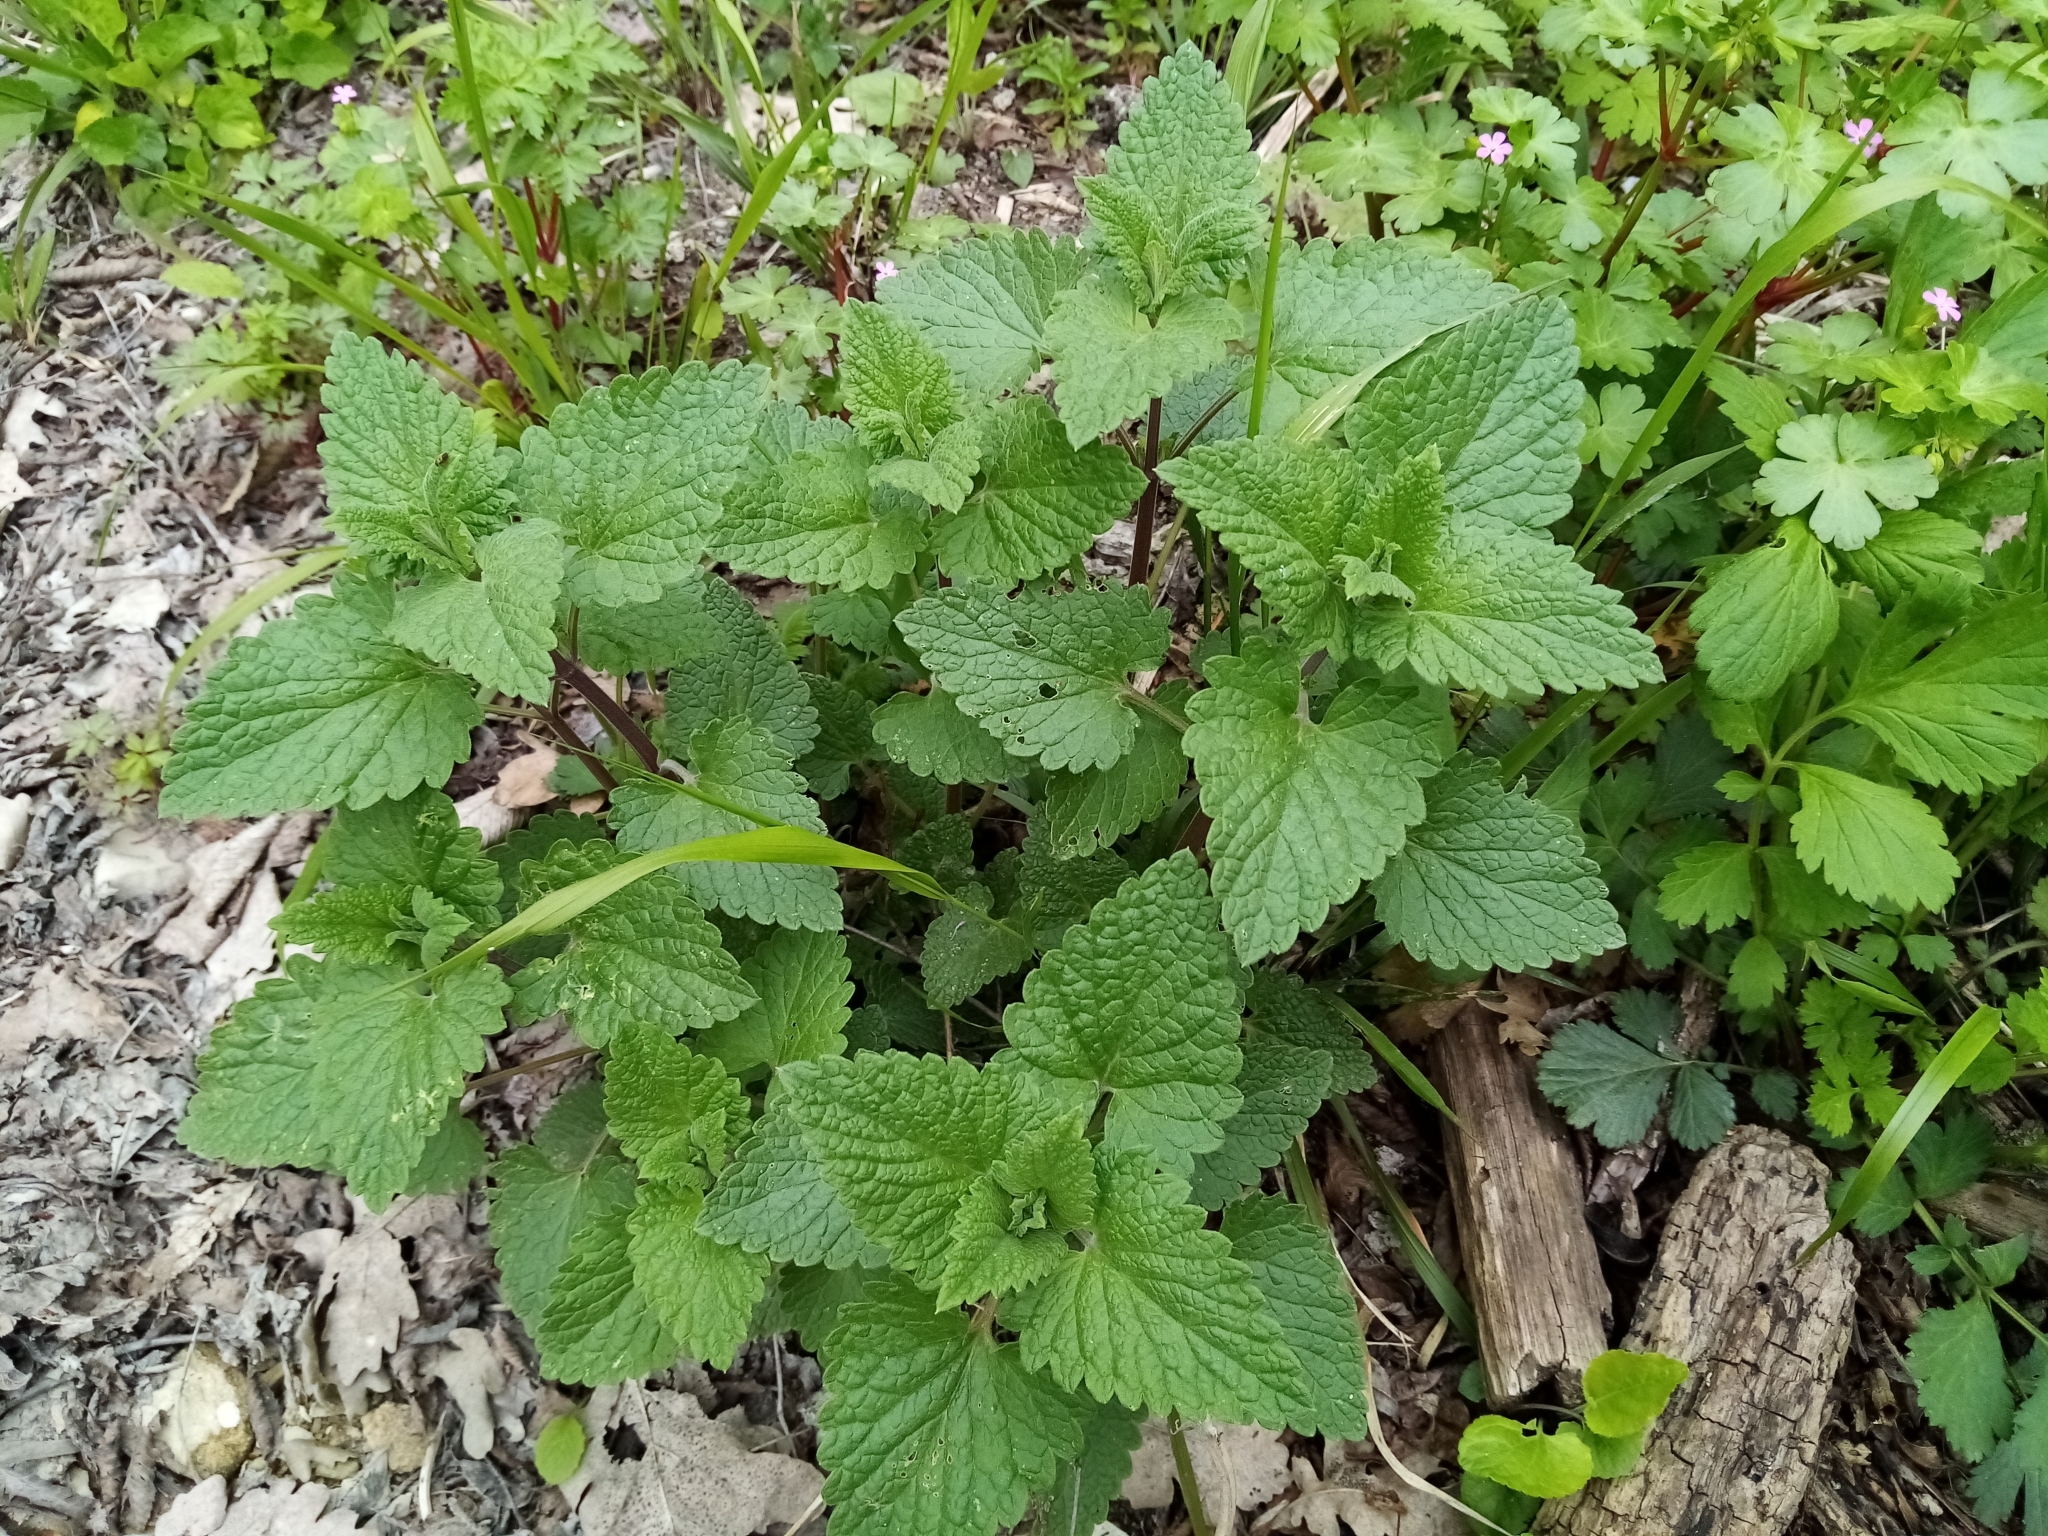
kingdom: Plantae
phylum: Tracheophyta
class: Magnoliopsida
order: Lamiales
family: Lamiaceae
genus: Nepeta
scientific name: Nepeta cataria
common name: Catnip
